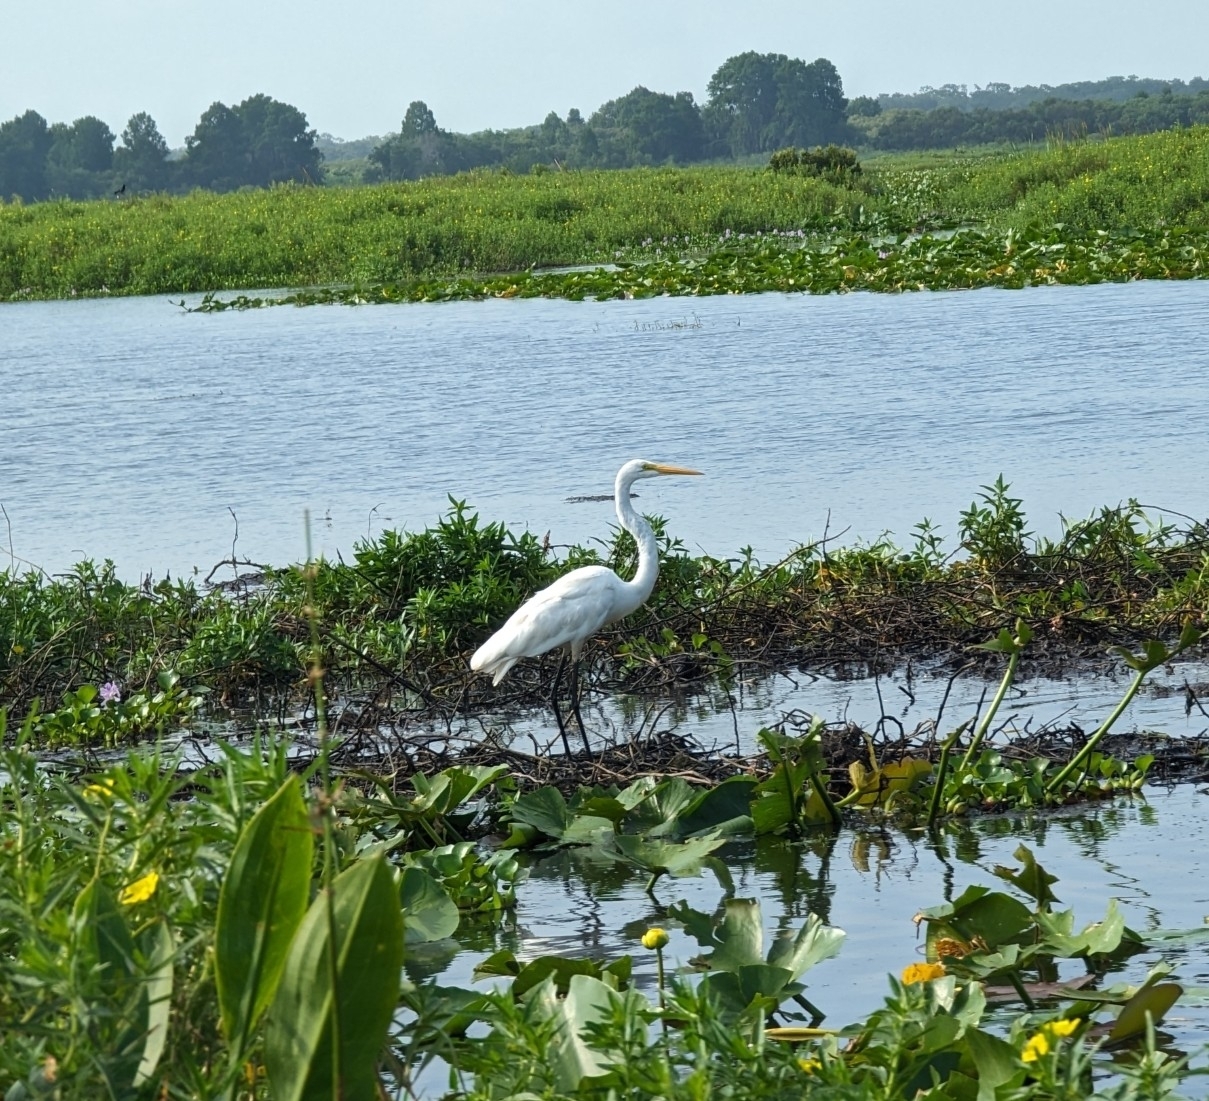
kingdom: Animalia
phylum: Chordata
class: Aves
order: Pelecaniformes
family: Ardeidae
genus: Ardea
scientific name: Ardea alba
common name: Great egret
